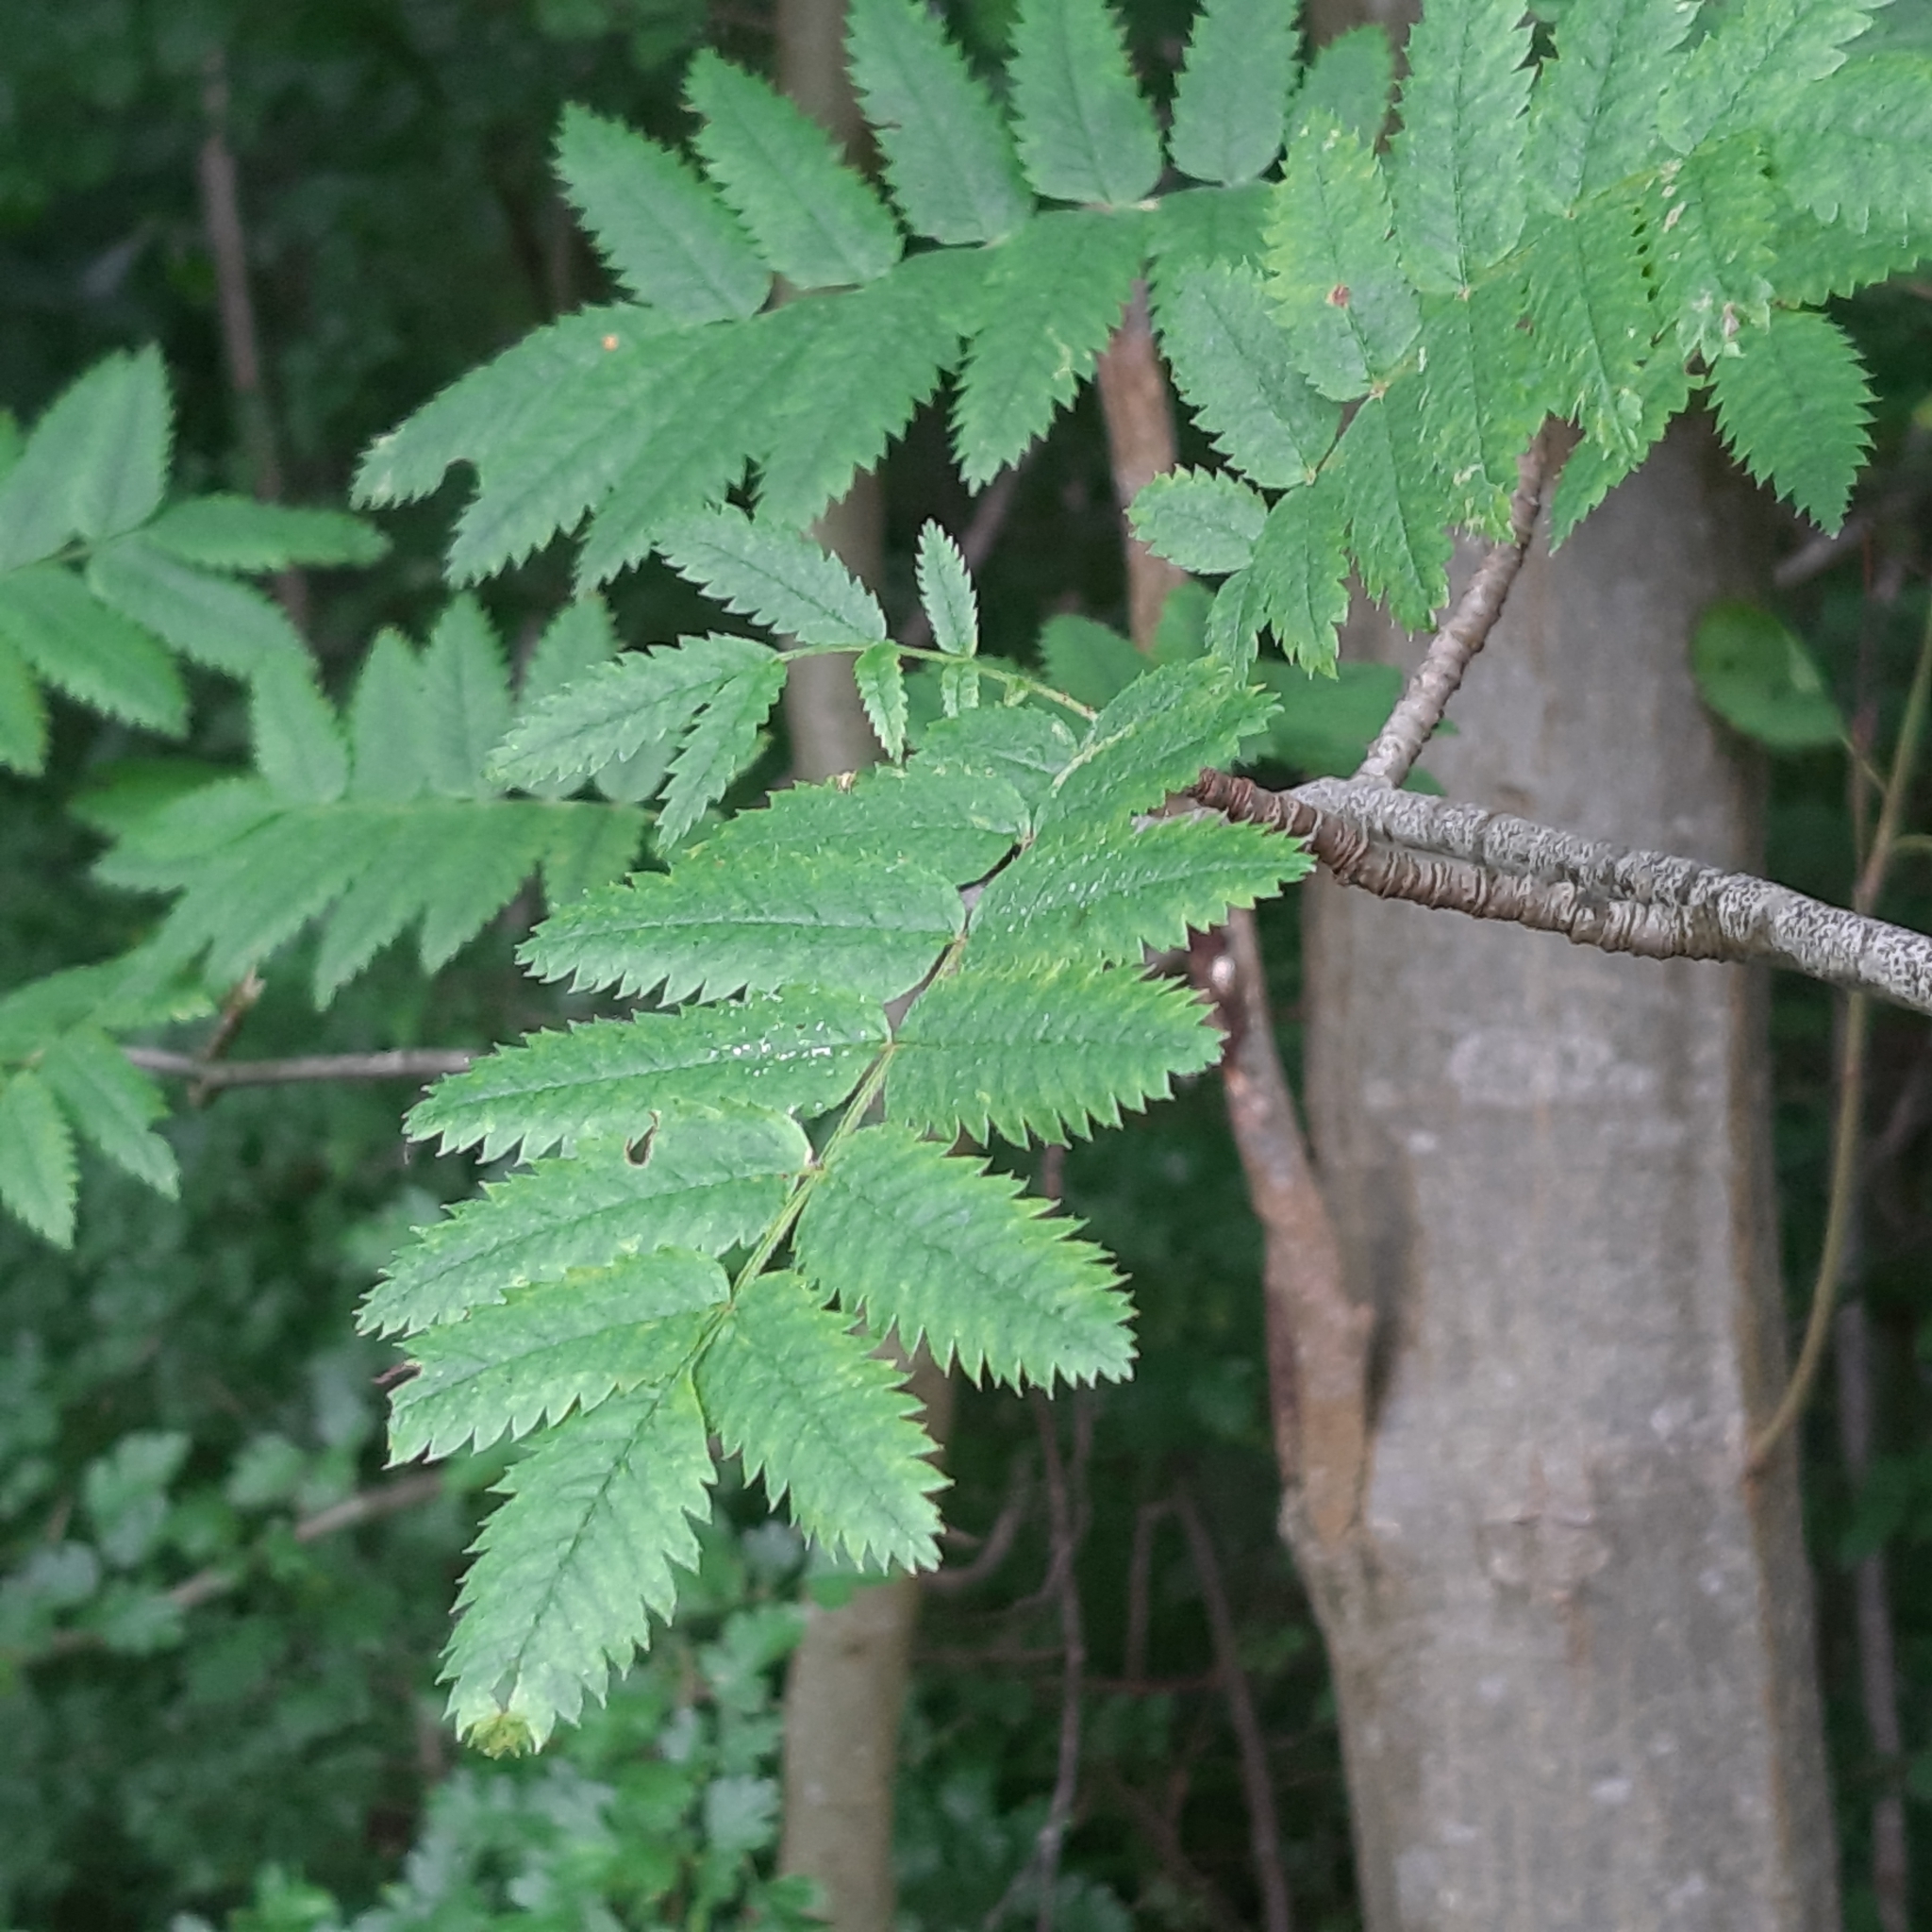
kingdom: Plantae
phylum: Tracheophyta
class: Magnoliopsida
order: Rosales
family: Rosaceae
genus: Sorbus
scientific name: Sorbus aucuparia
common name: Rowan
